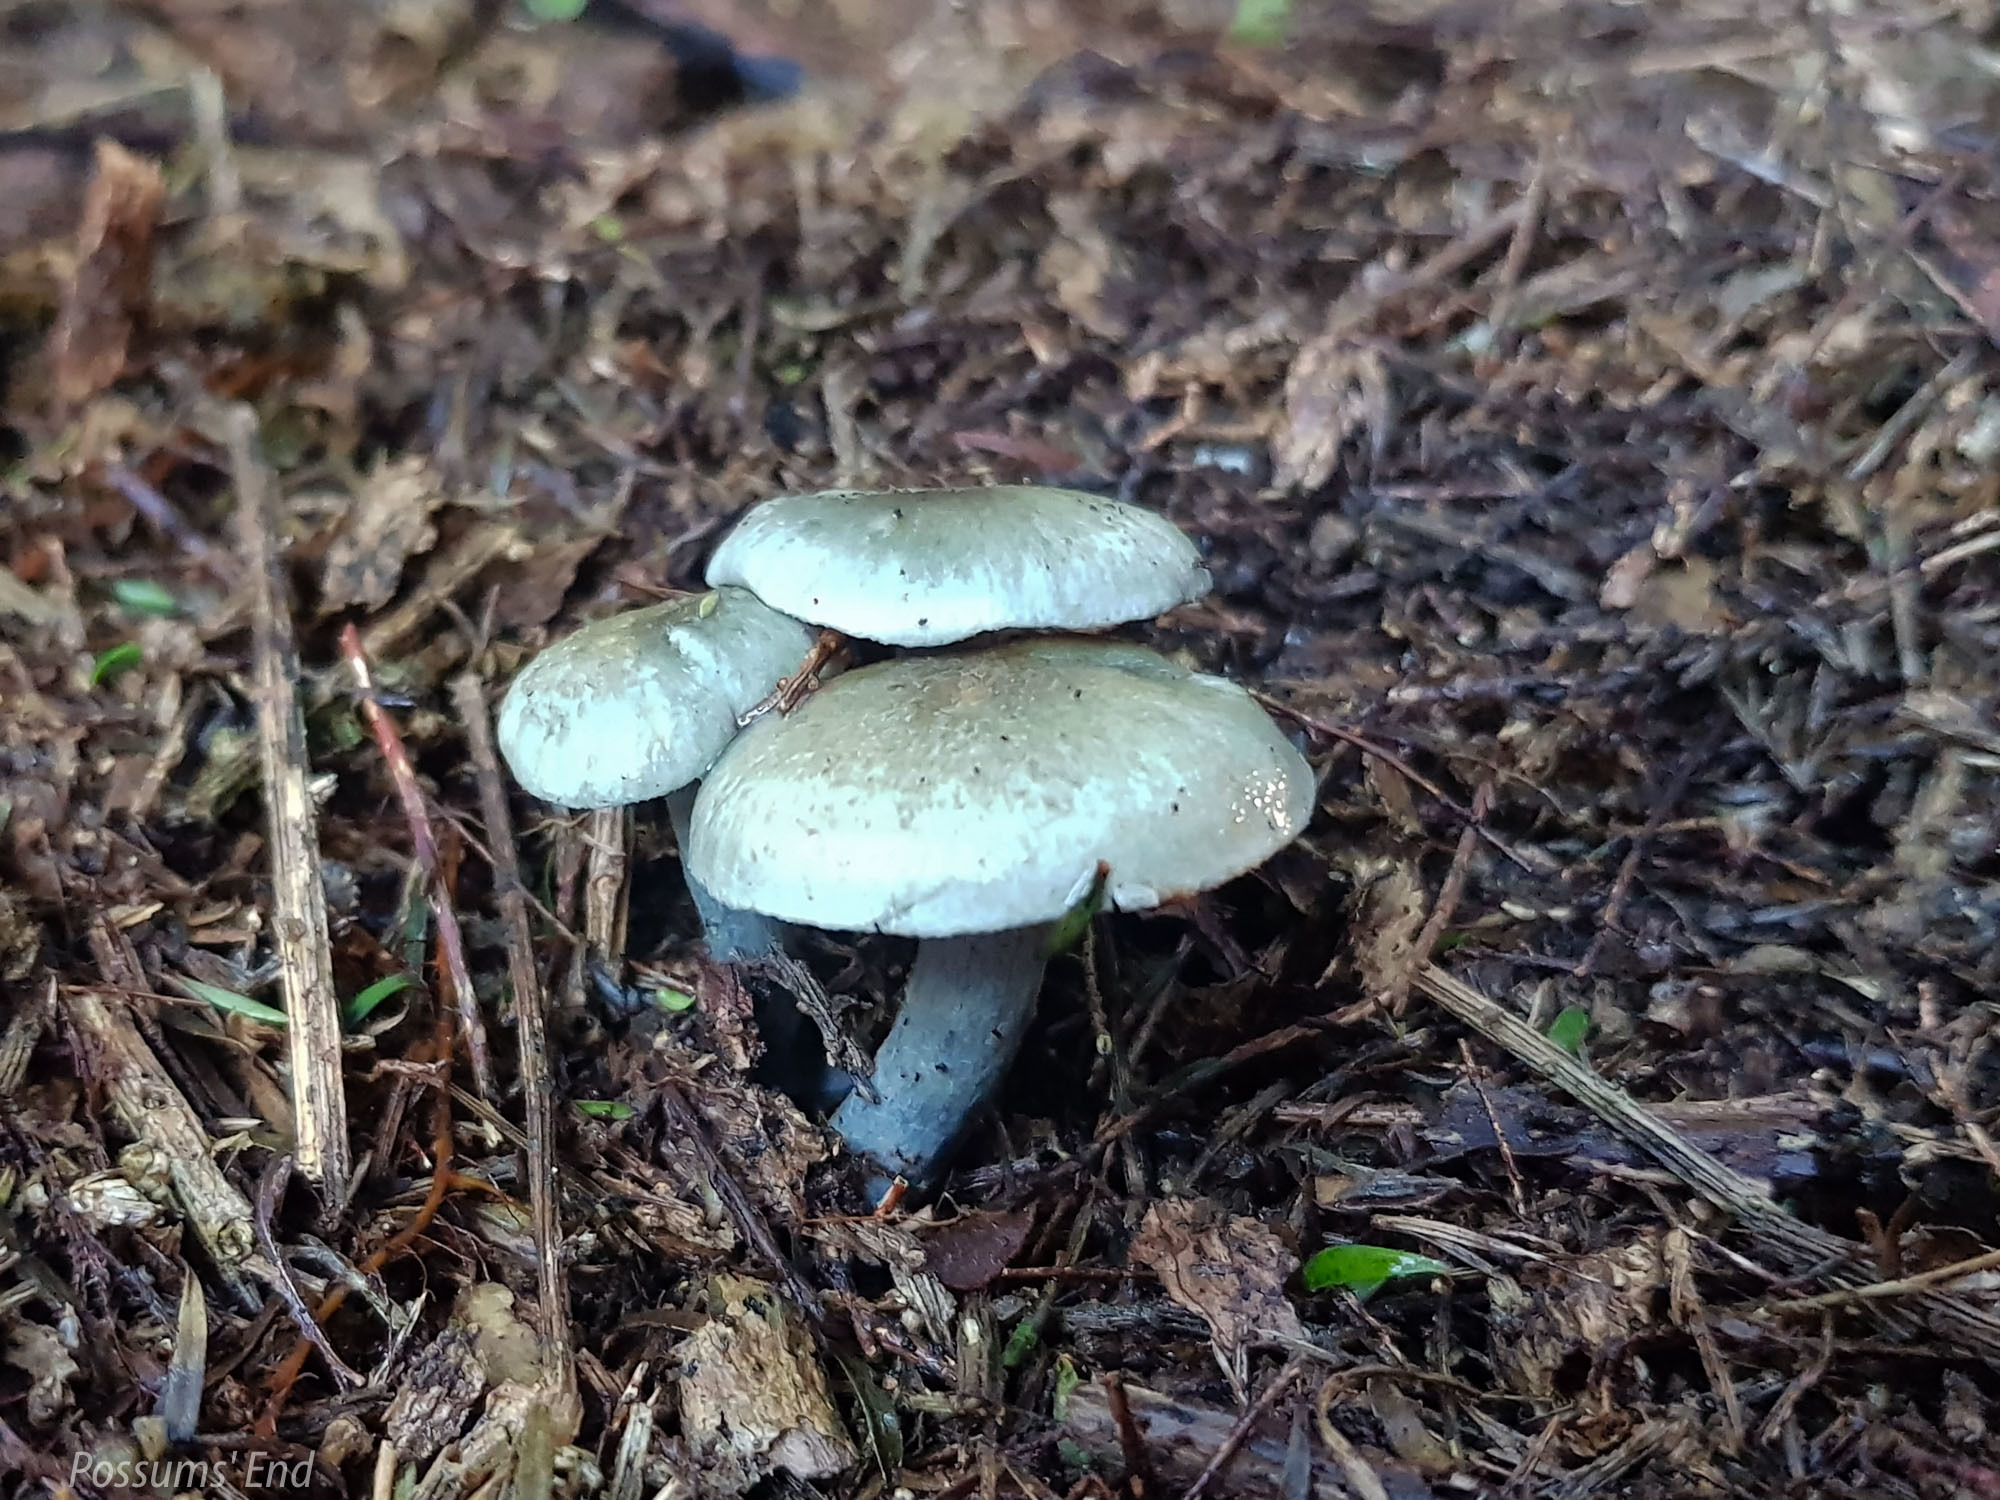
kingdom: Fungi
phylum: Basidiomycota
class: Agaricomycetes
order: Agaricales
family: Cortinariaceae
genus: Cortinarius
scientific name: Cortinarius rotundisporus
